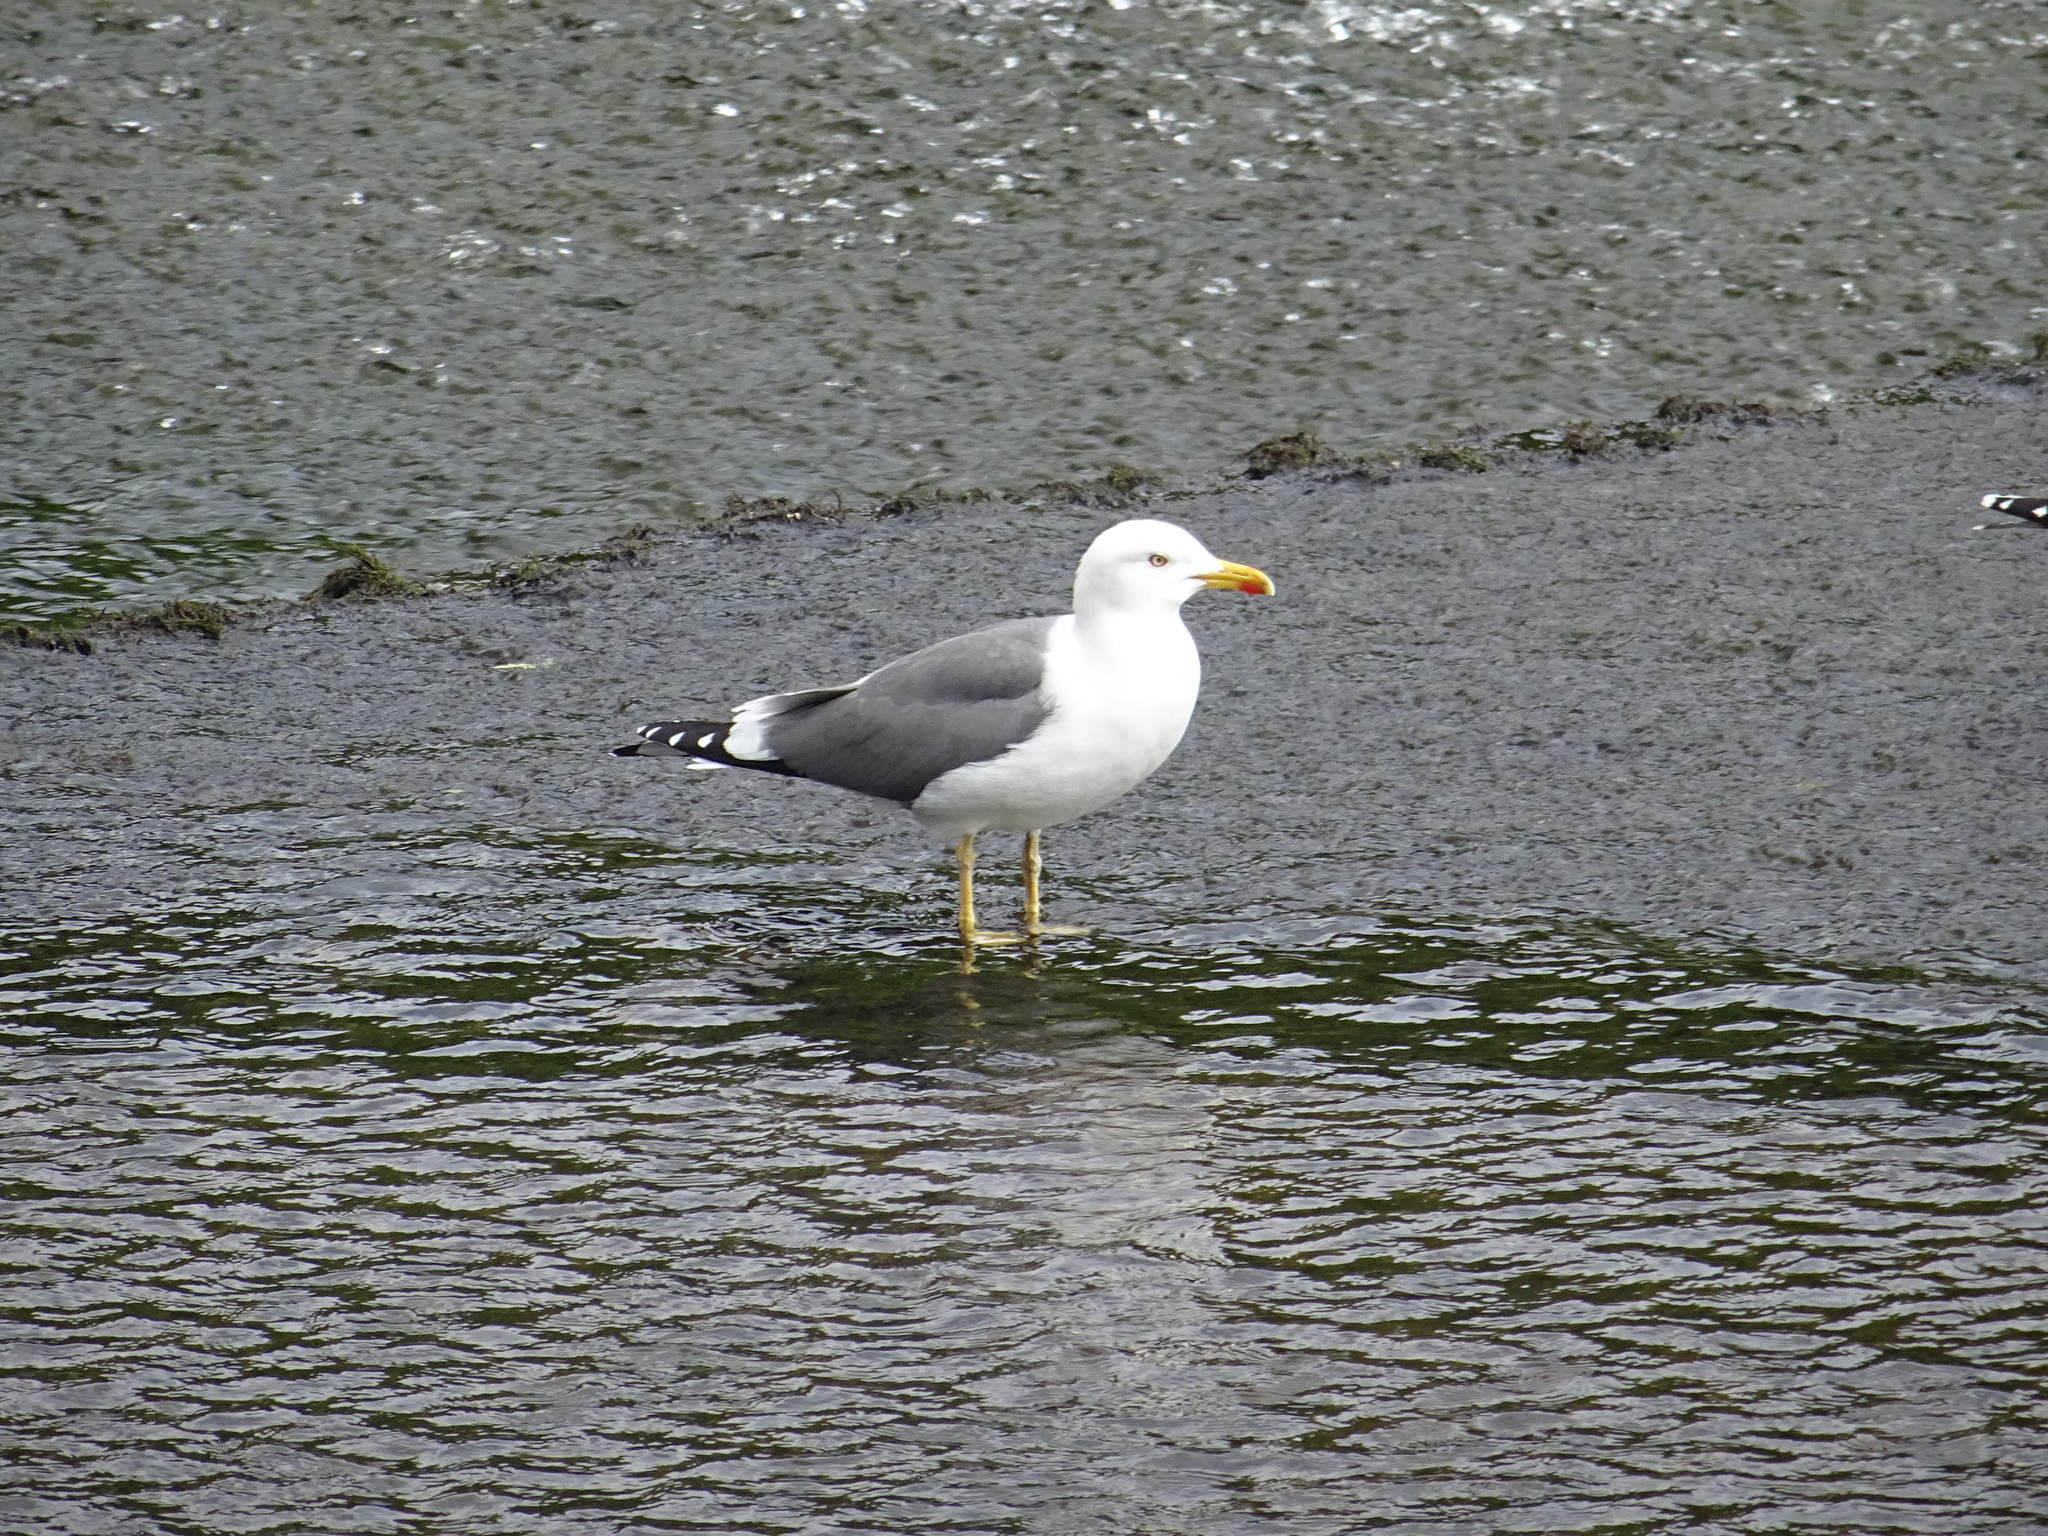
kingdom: Animalia
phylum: Chordata
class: Aves
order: Charadriiformes
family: Laridae
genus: Larus
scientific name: Larus fuscus
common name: Lesser black-backed gull
